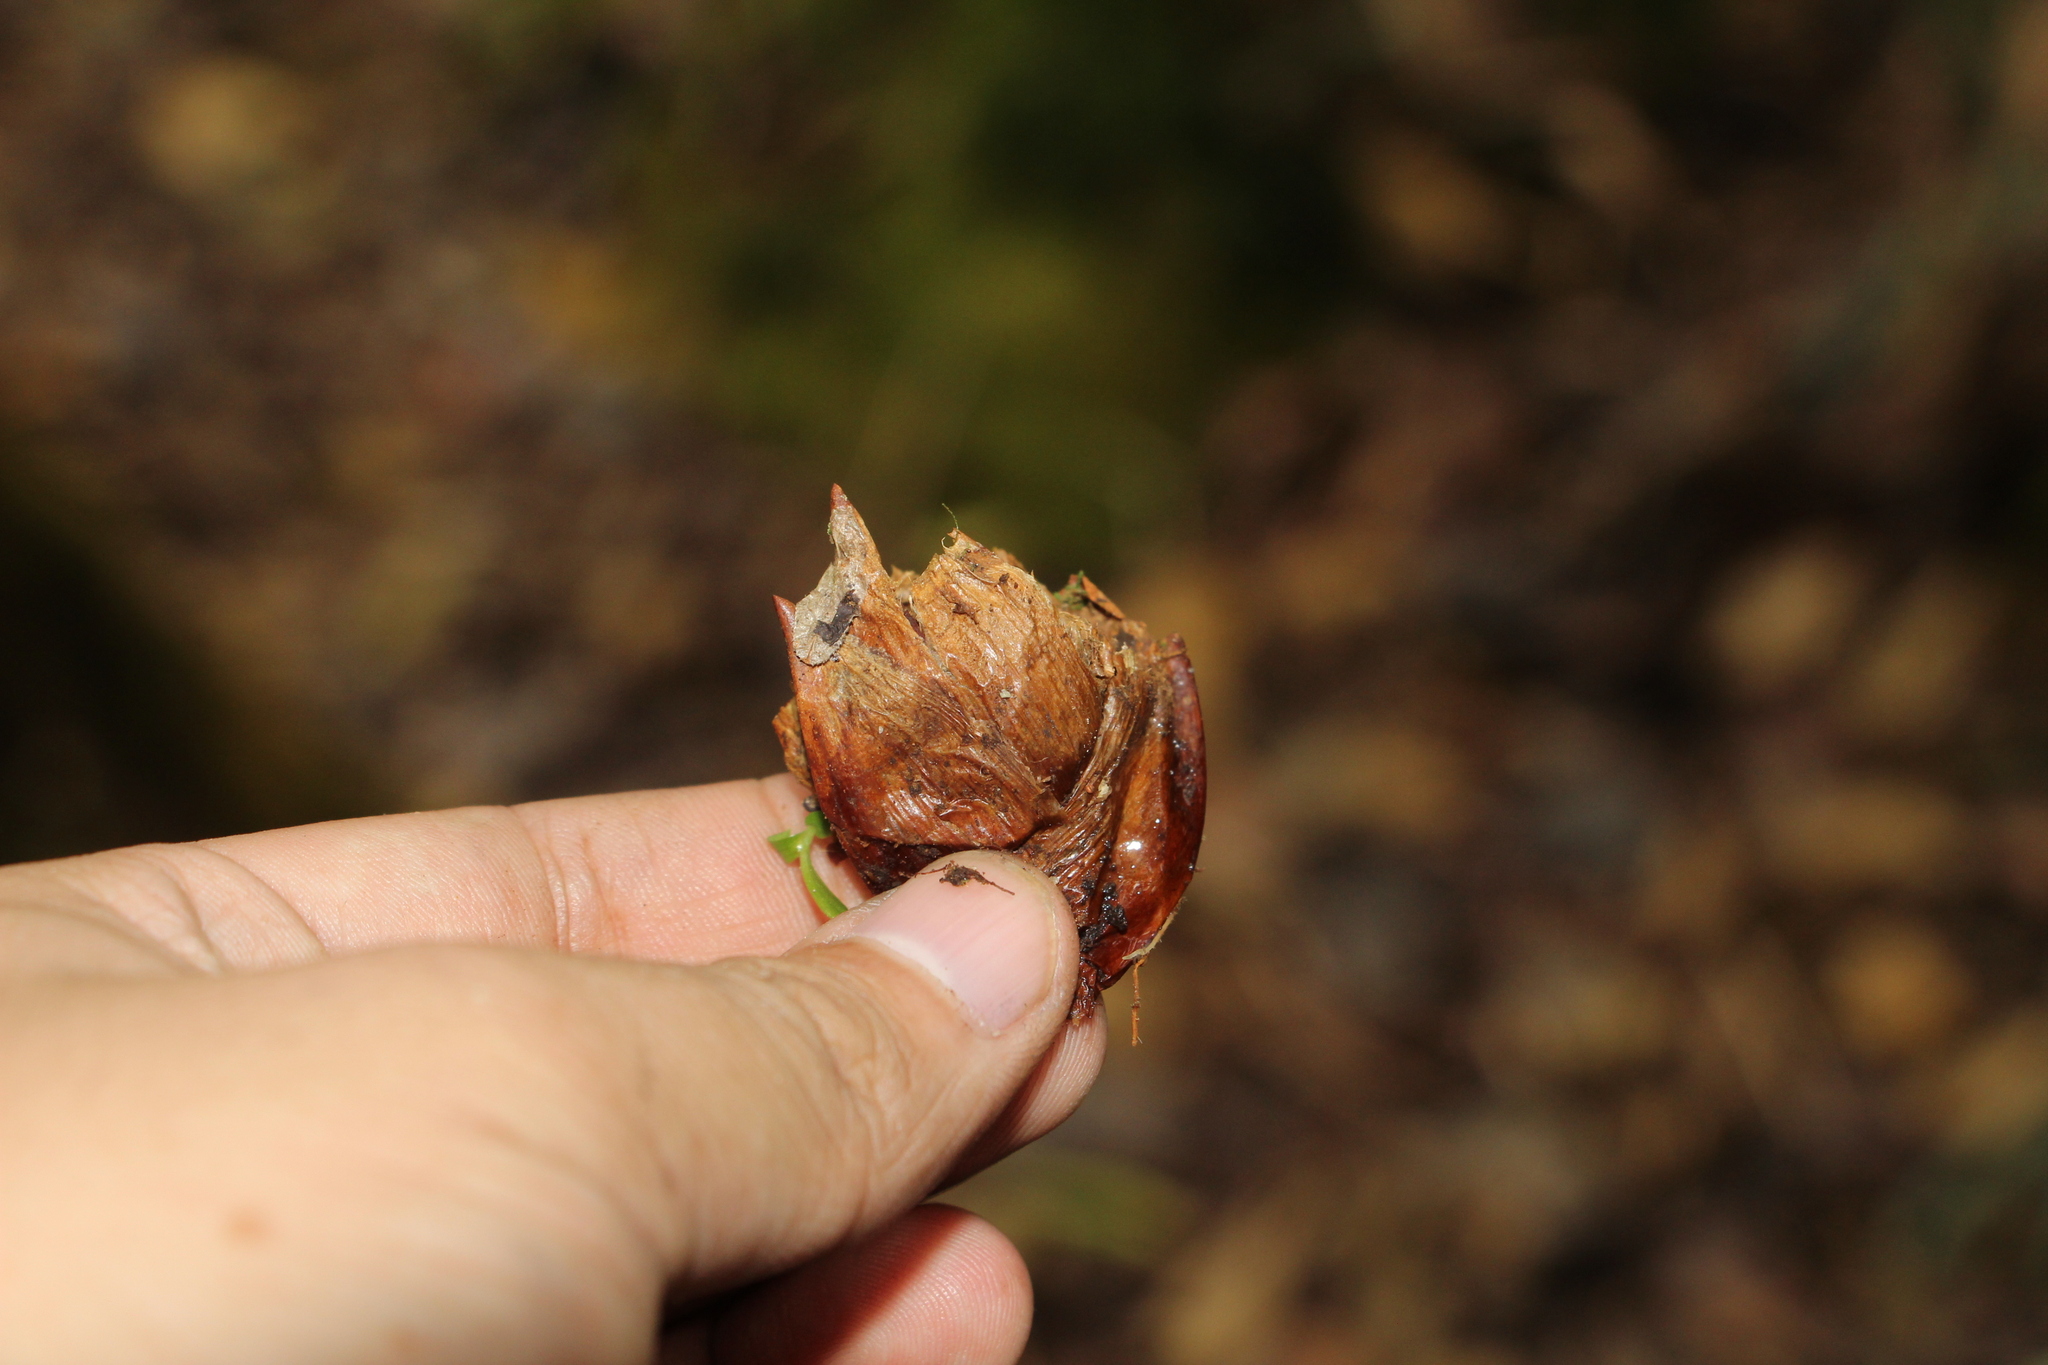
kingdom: Plantae
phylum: Tracheophyta
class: Liliopsida
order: Poales
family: Bromeliaceae
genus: Greigia
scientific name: Greigia collina
